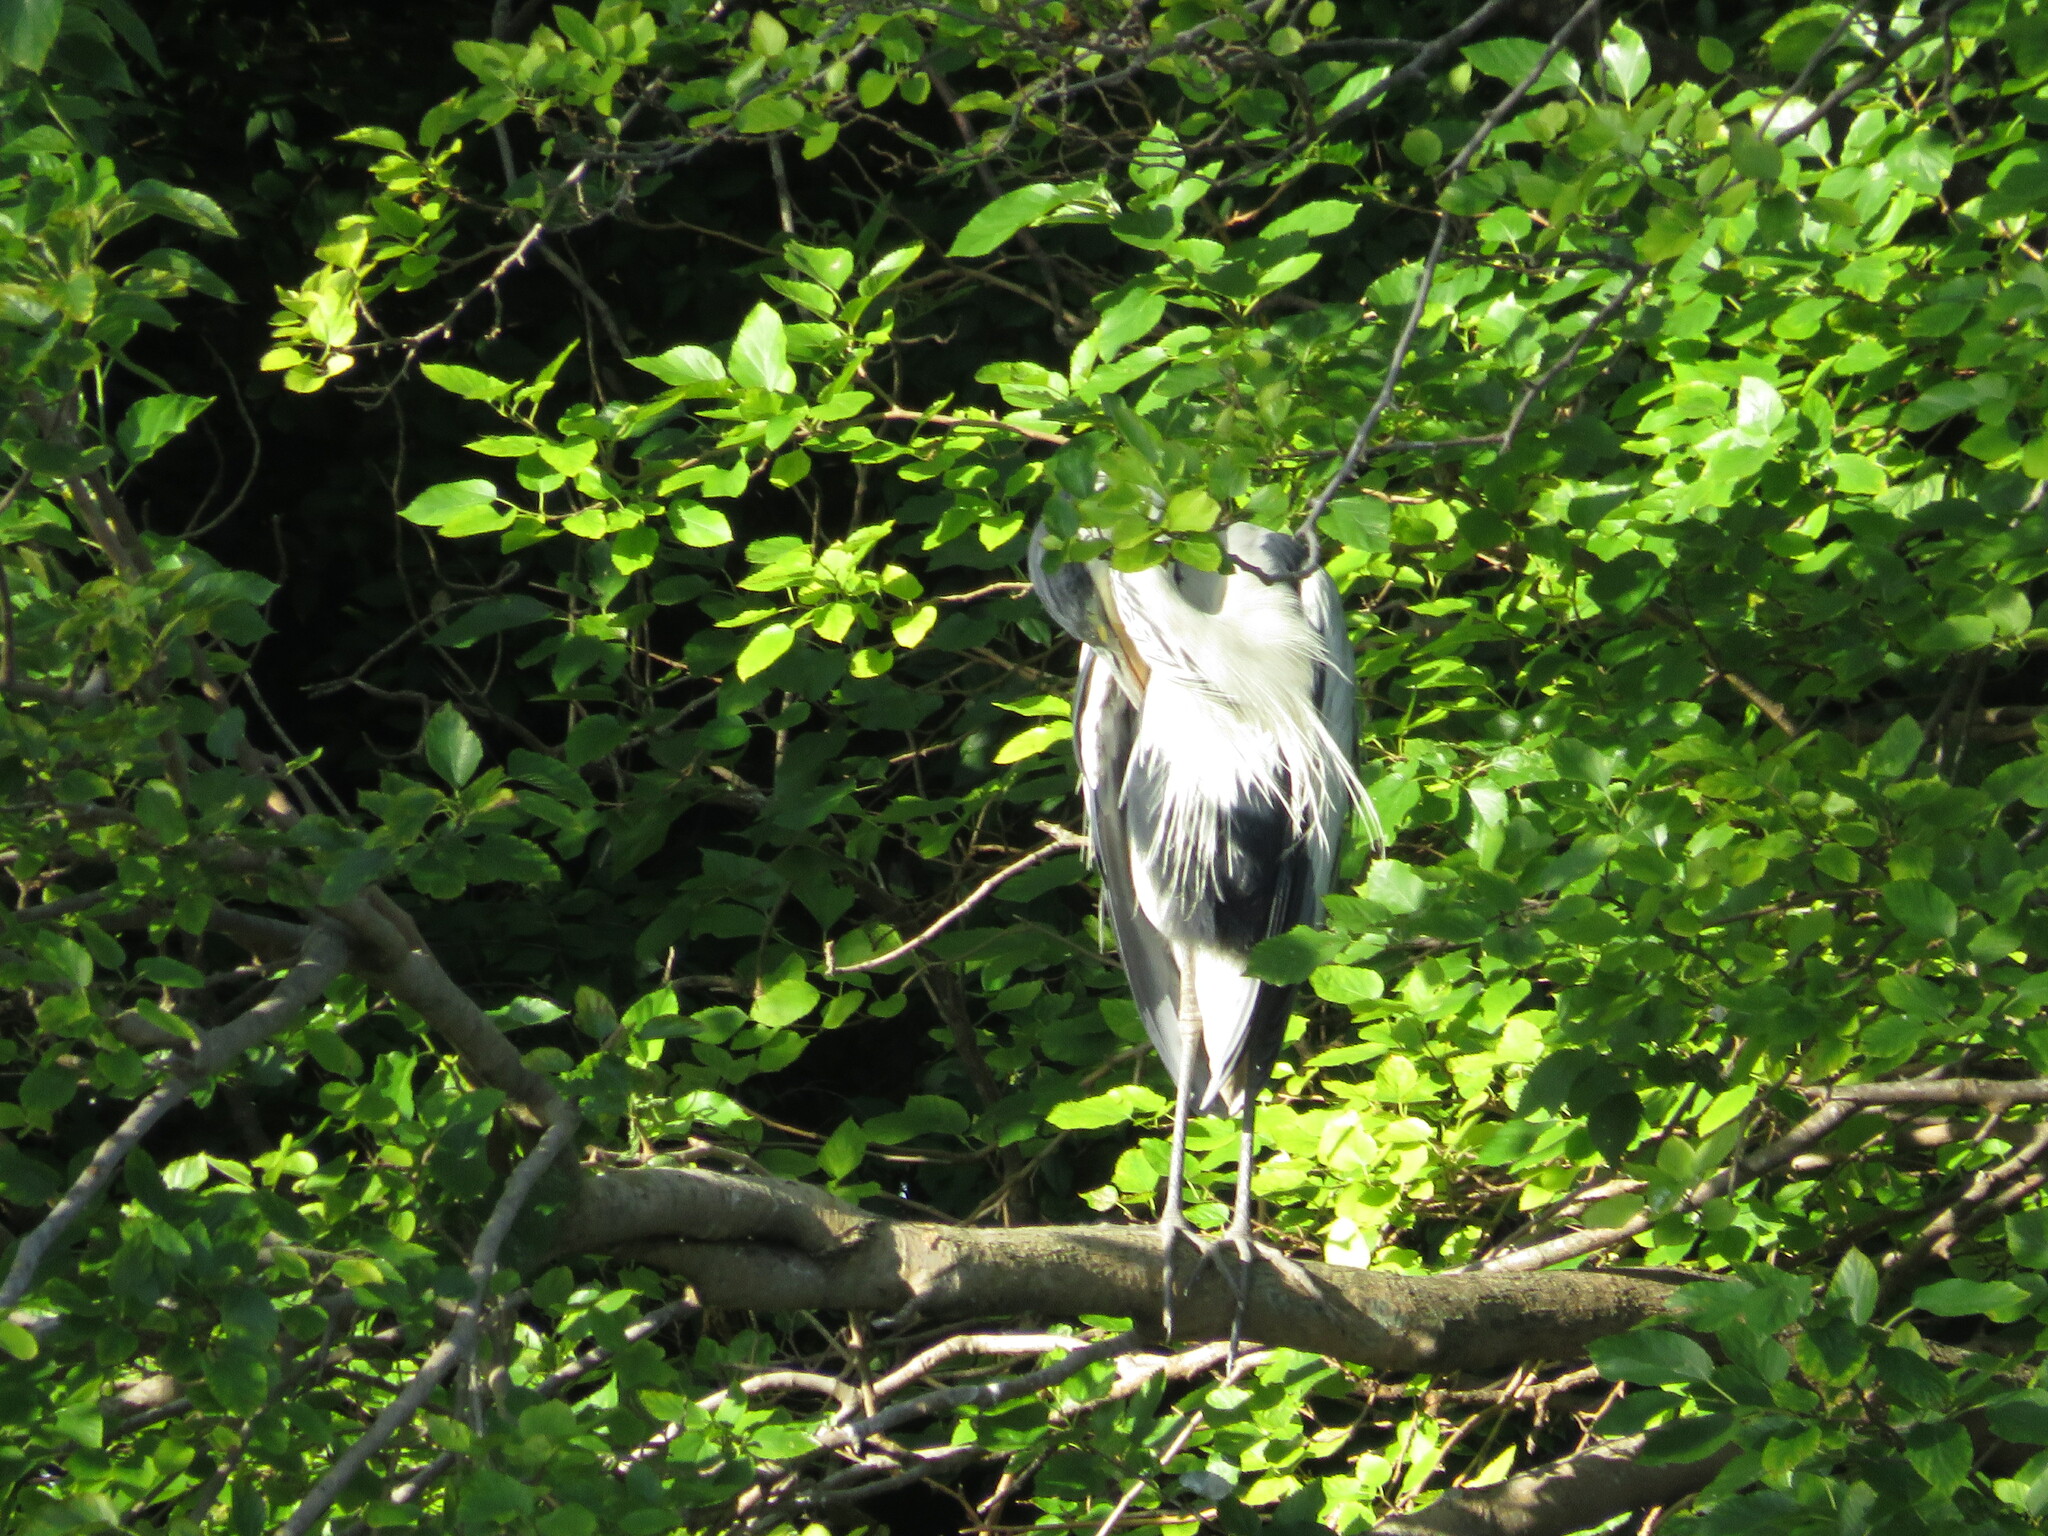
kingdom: Animalia
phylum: Chordata
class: Aves
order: Pelecaniformes
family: Ardeidae
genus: Ardea
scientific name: Ardea cocoi
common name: Cocoi heron
